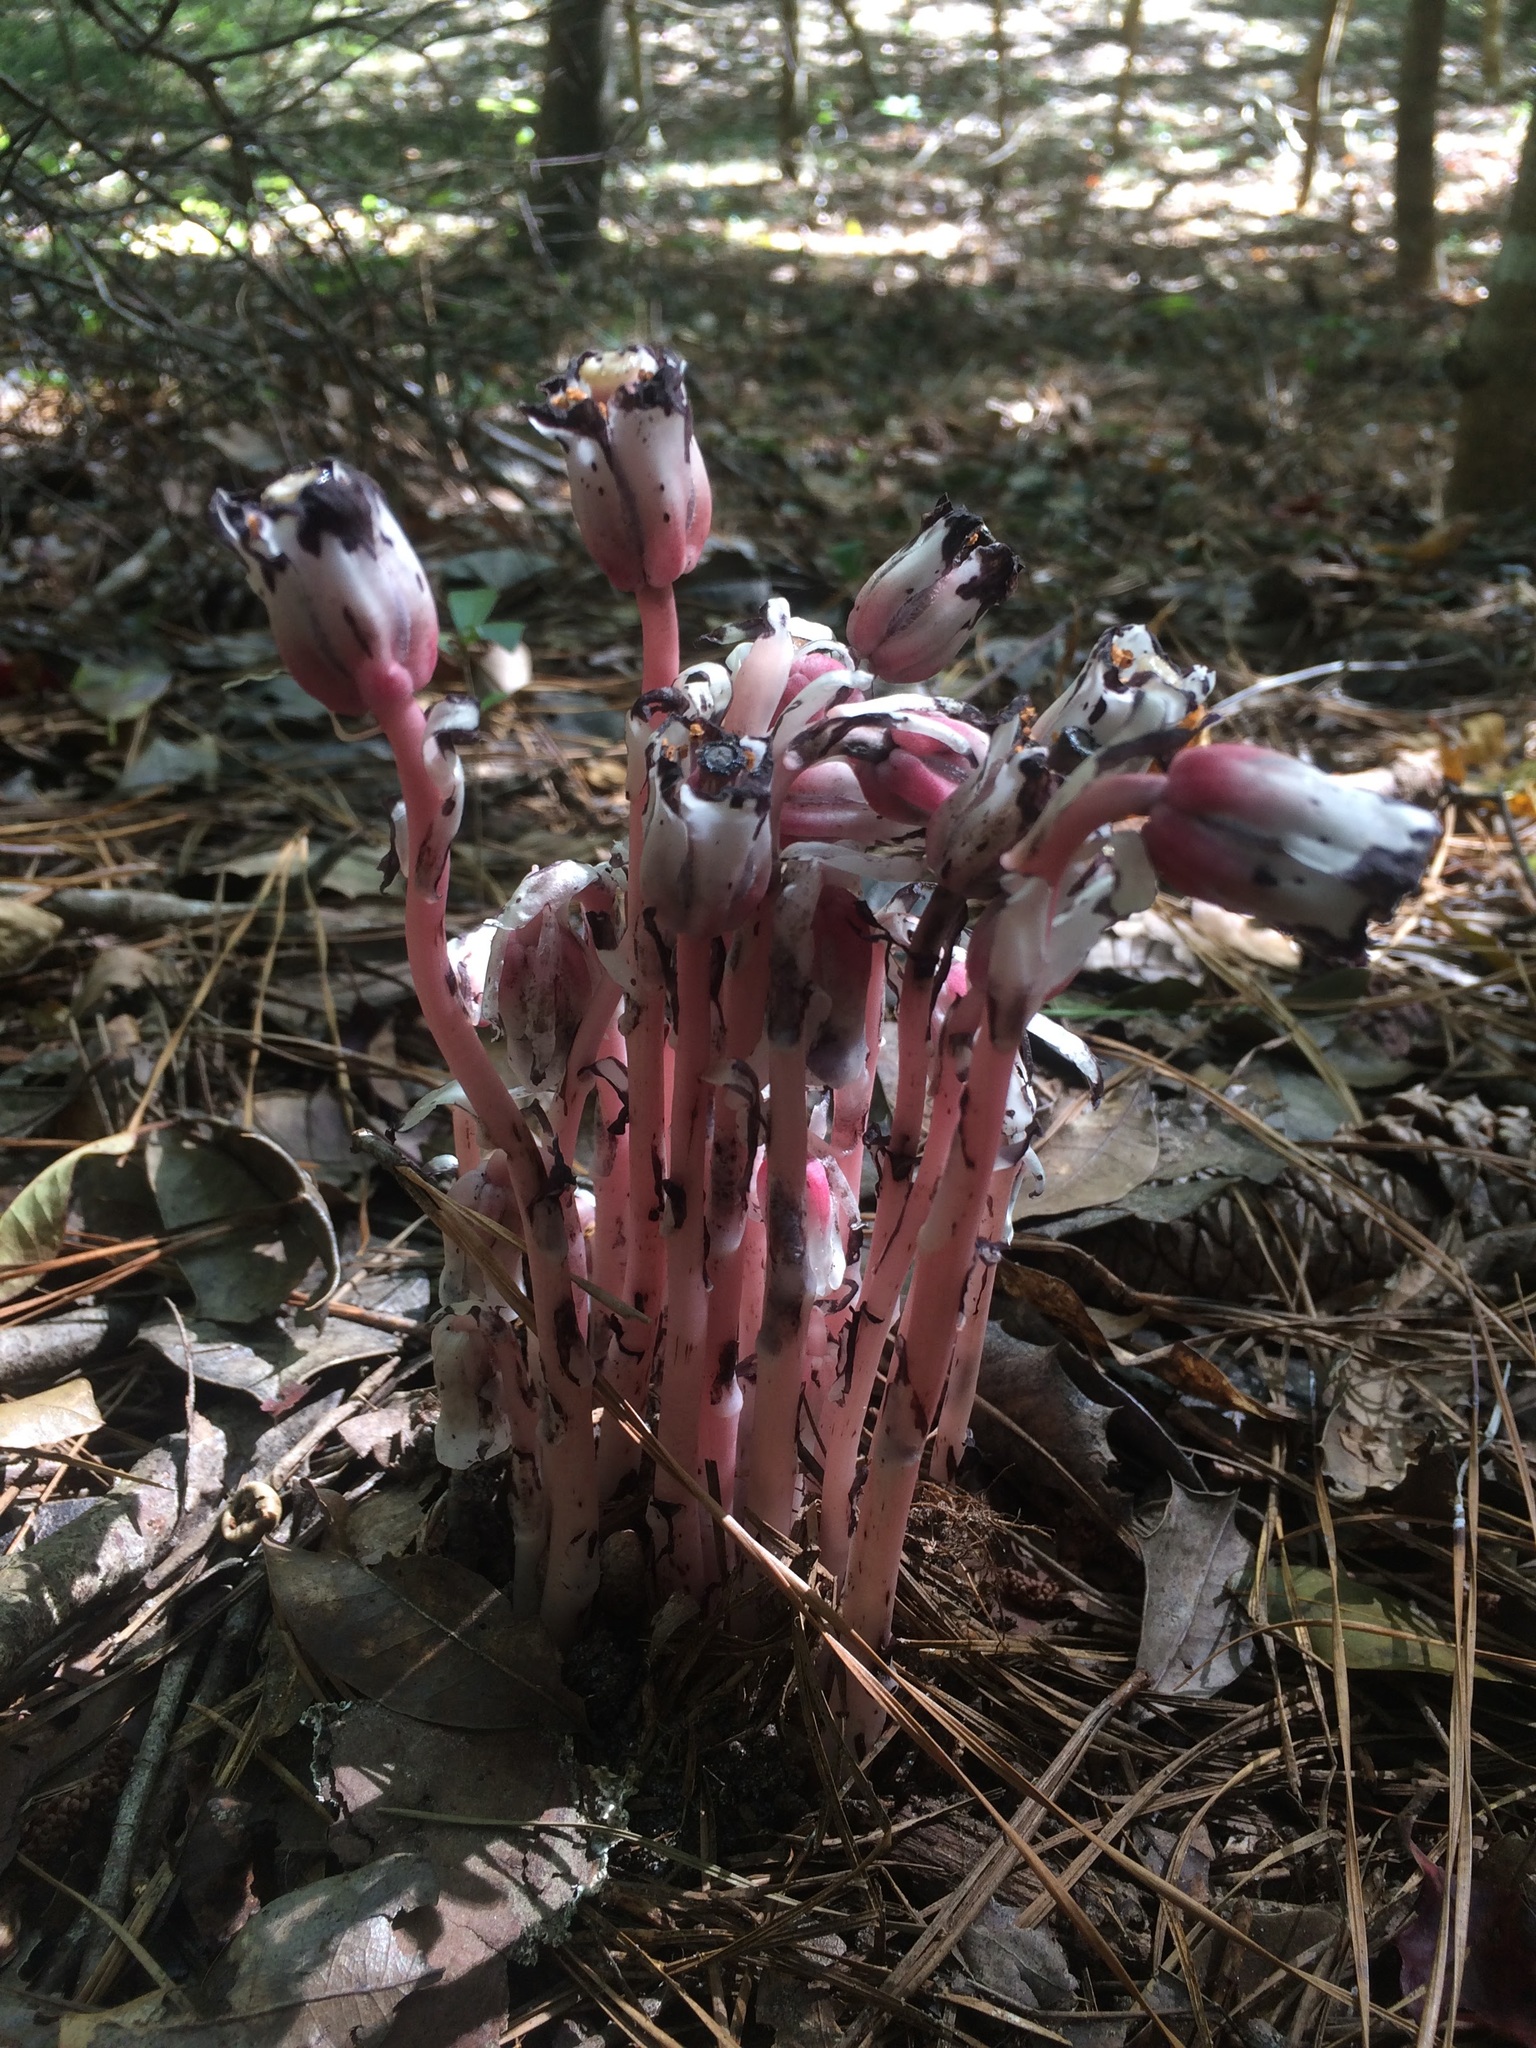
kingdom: Plantae
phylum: Tracheophyta
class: Magnoliopsida
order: Ericales
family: Ericaceae
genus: Monotropa
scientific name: Monotropa uniflora
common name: Convulsion root
